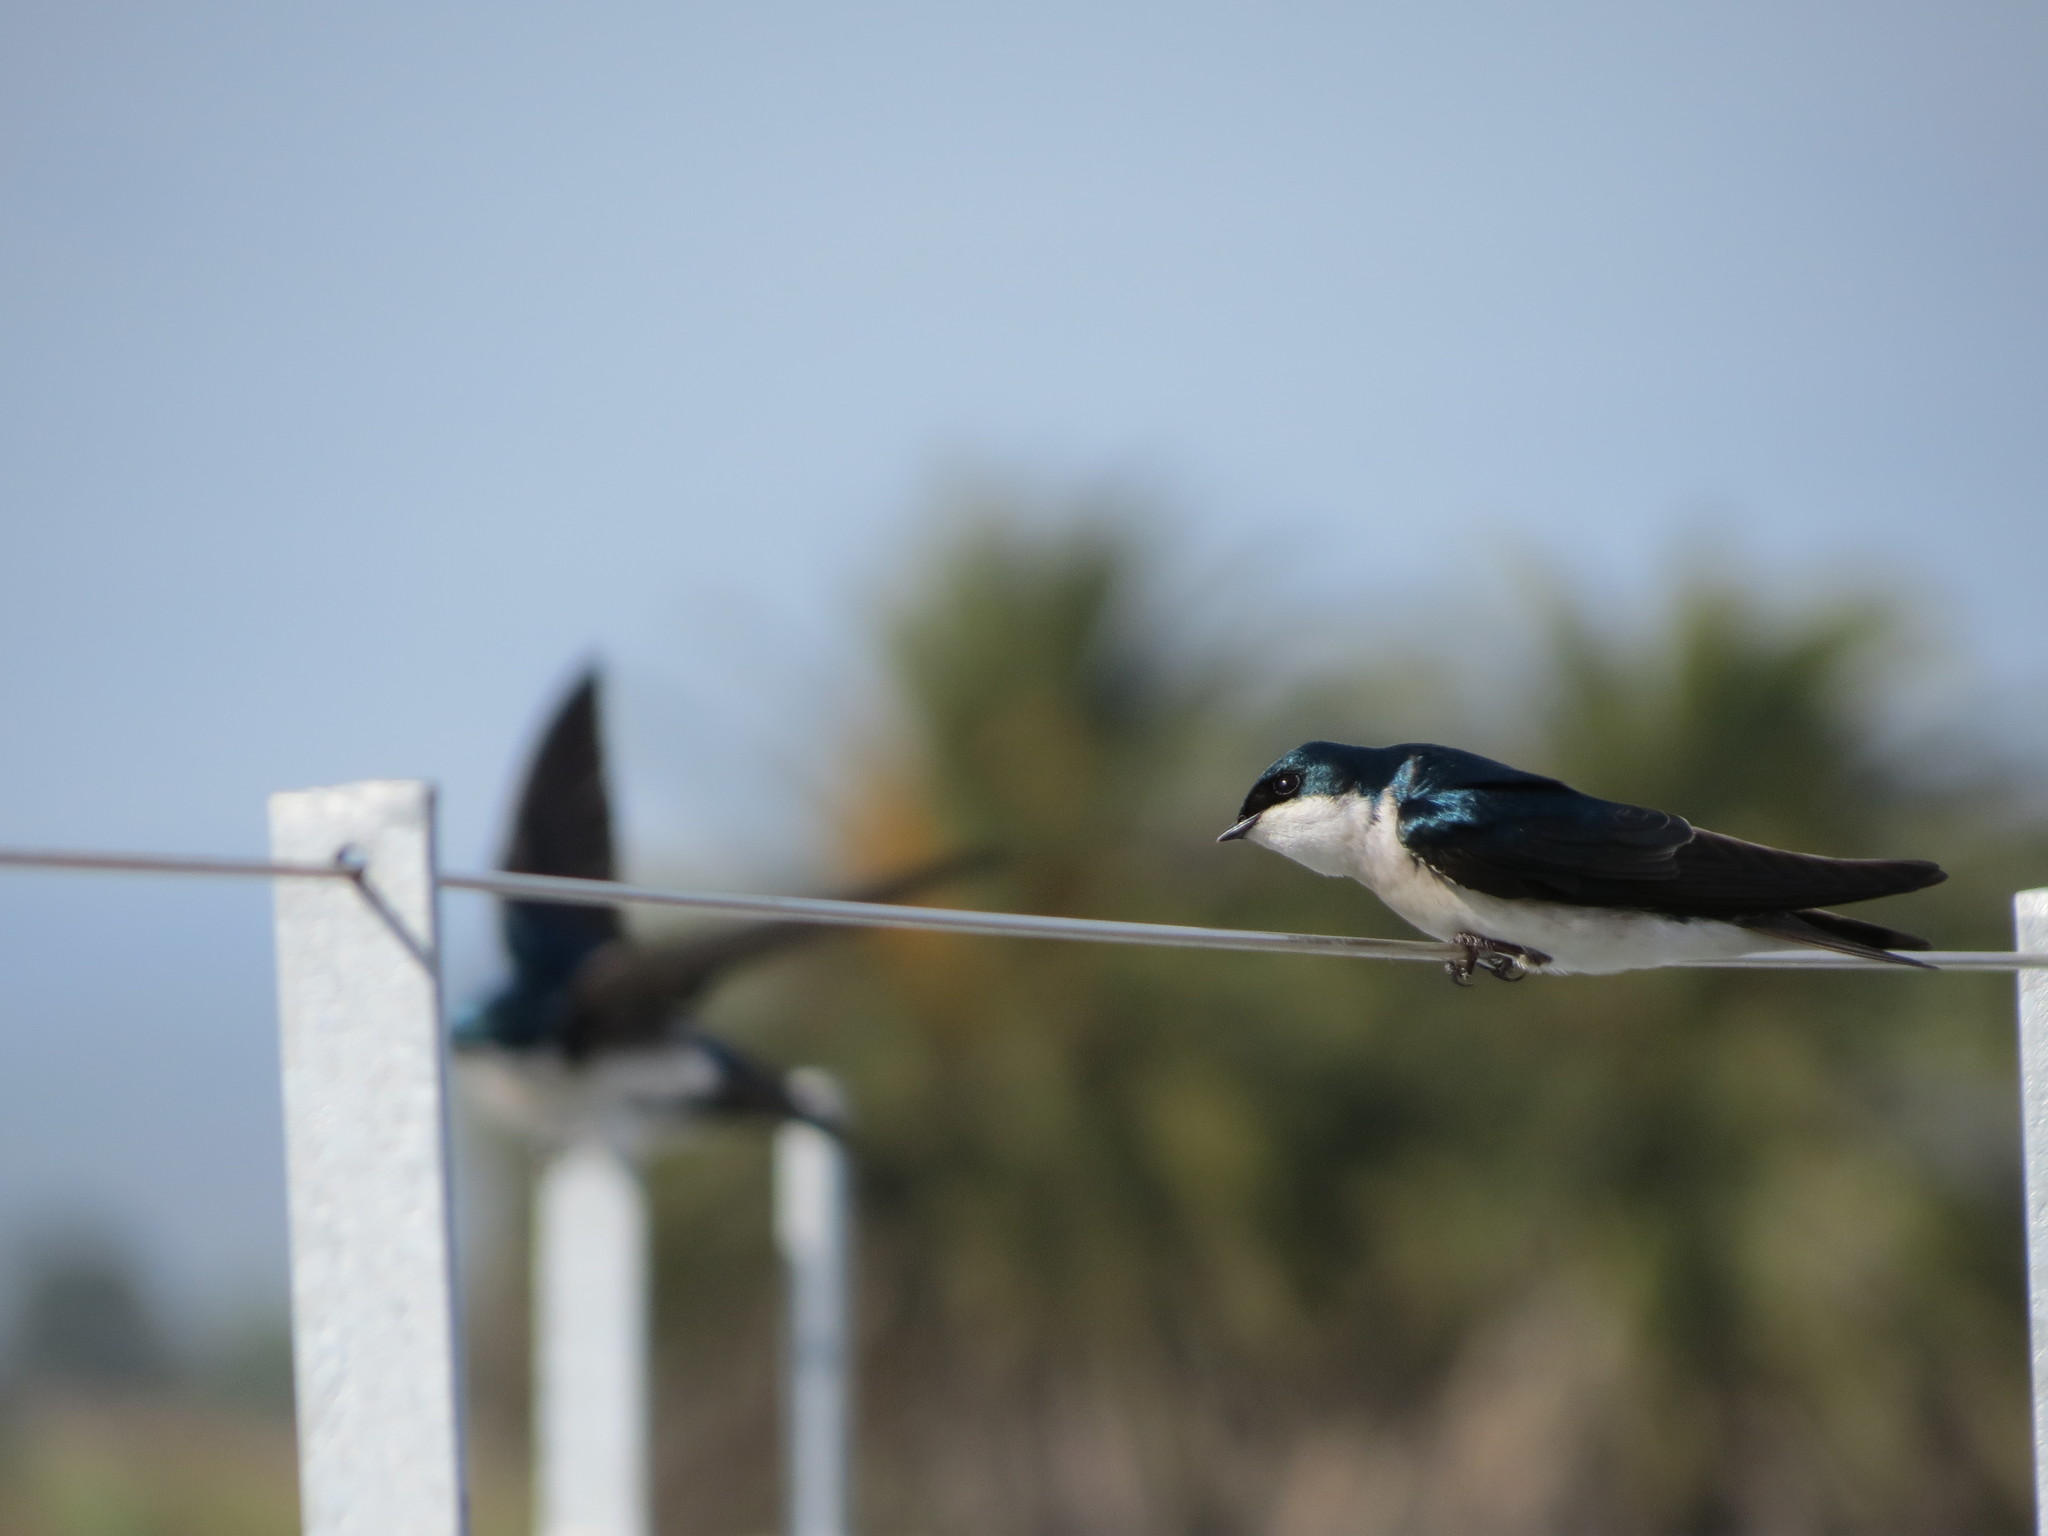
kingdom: Animalia
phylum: Chordata
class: Aves
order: Passeriformes
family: Hirundinidae
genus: Tachycineta
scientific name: Tachycineta bicolor
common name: Tree swallow
